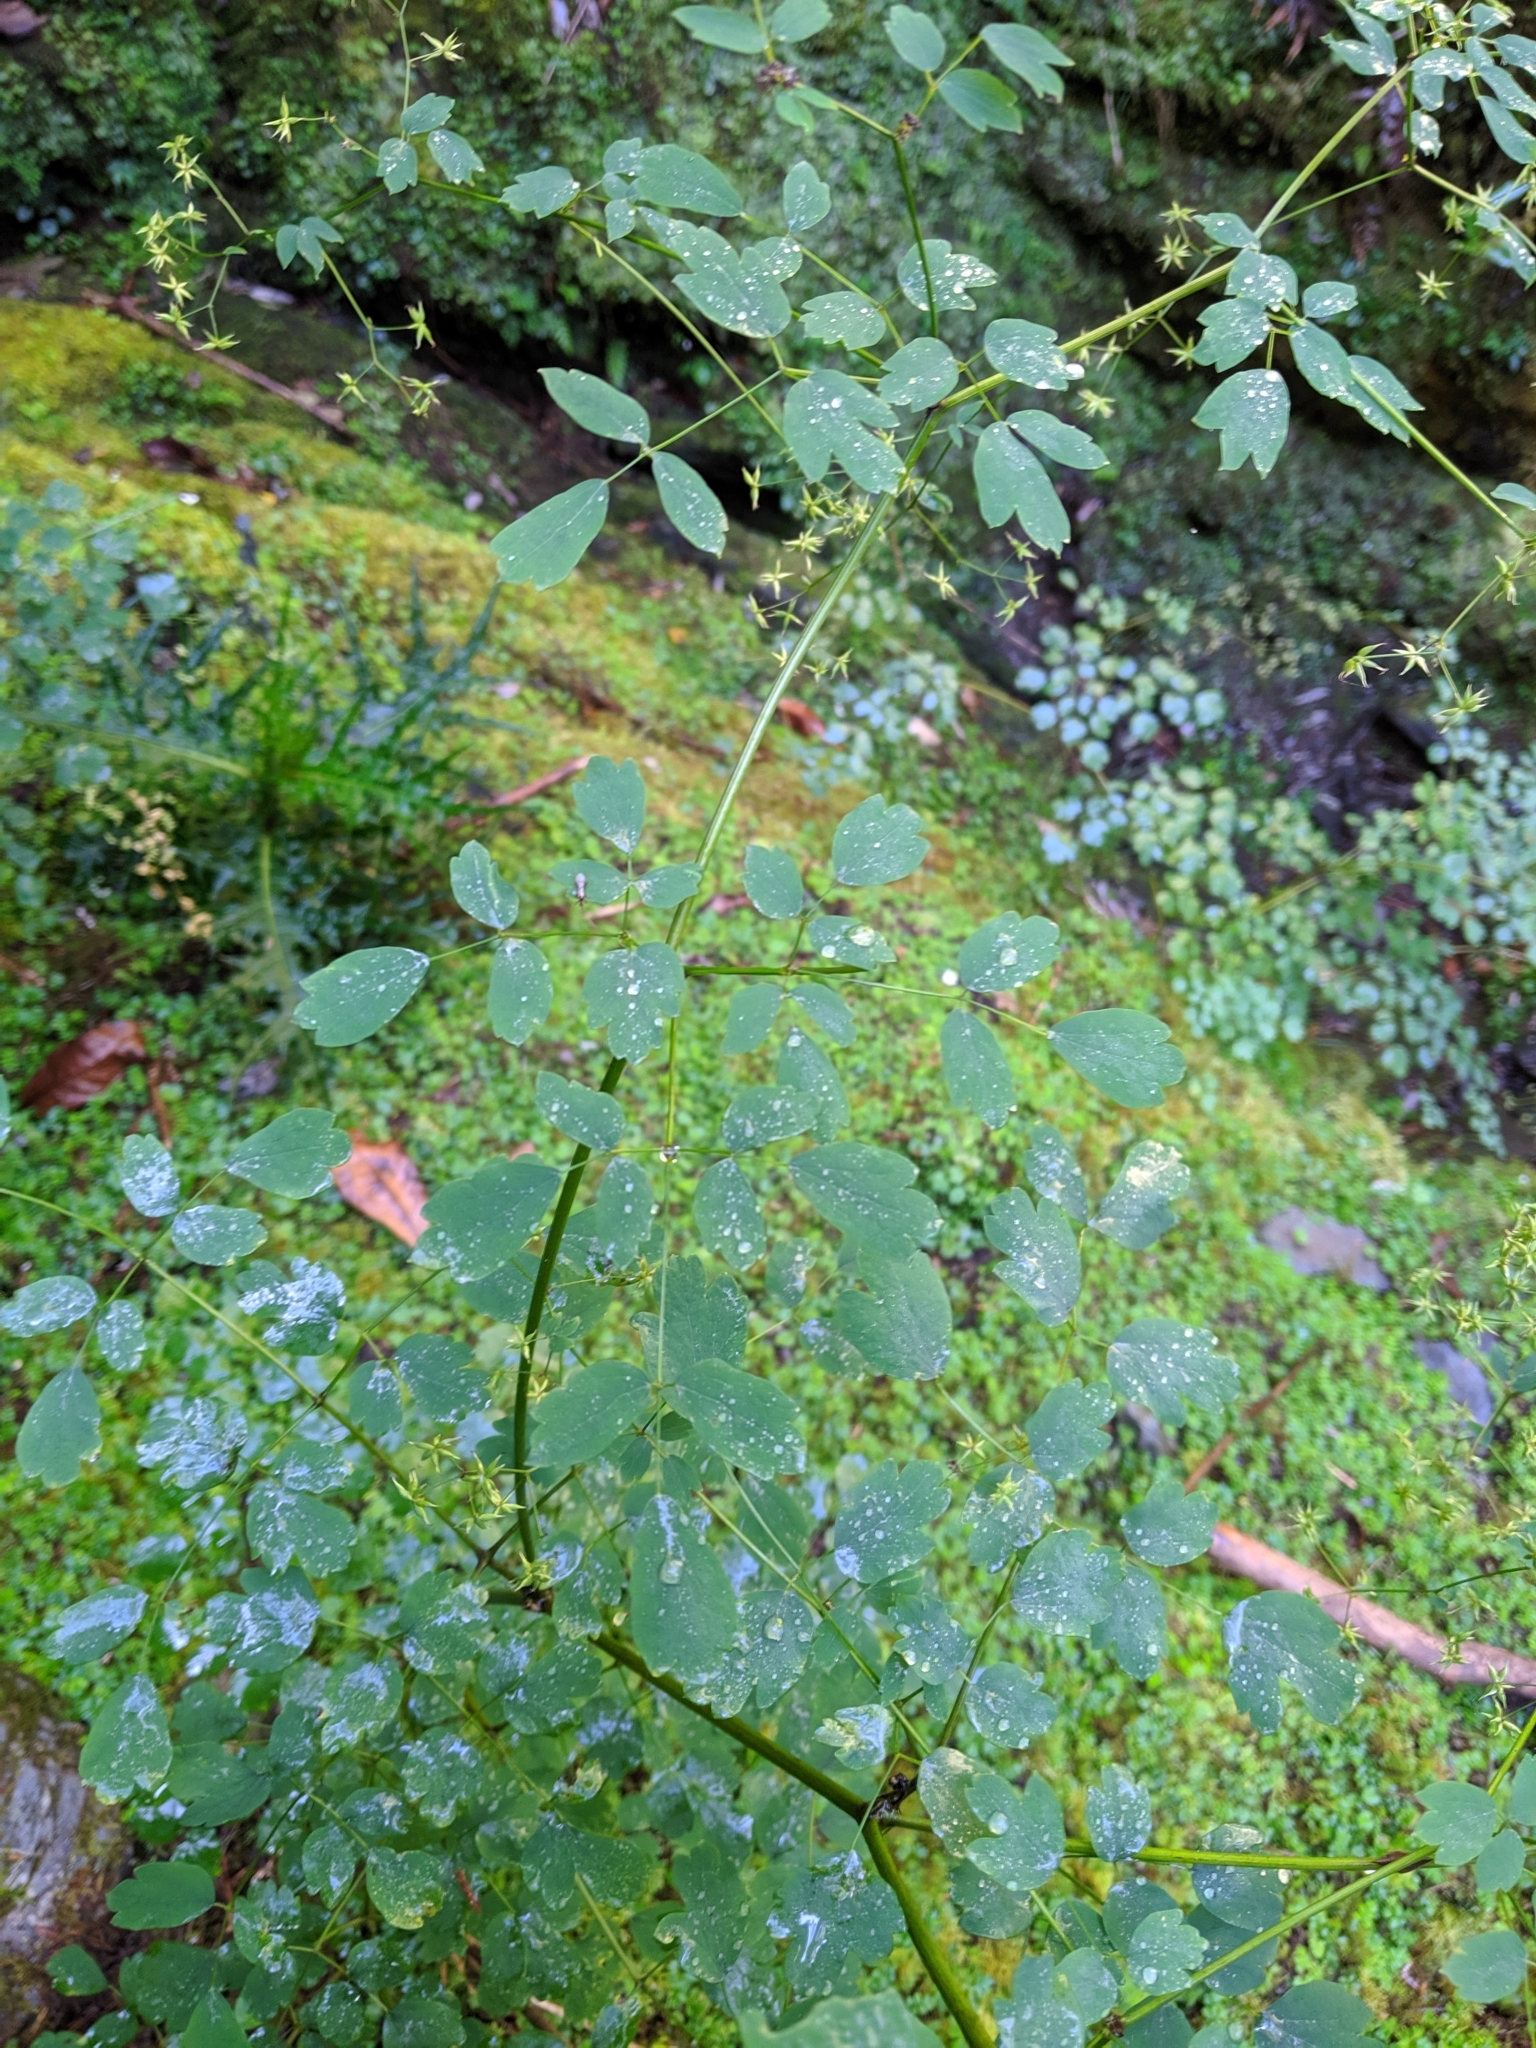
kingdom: Plantae
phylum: Tracheophyta
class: Magnoliopsida
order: Ranunculales
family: Ranunculaceae
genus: Thalictrum
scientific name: Thalictrum javanicum
